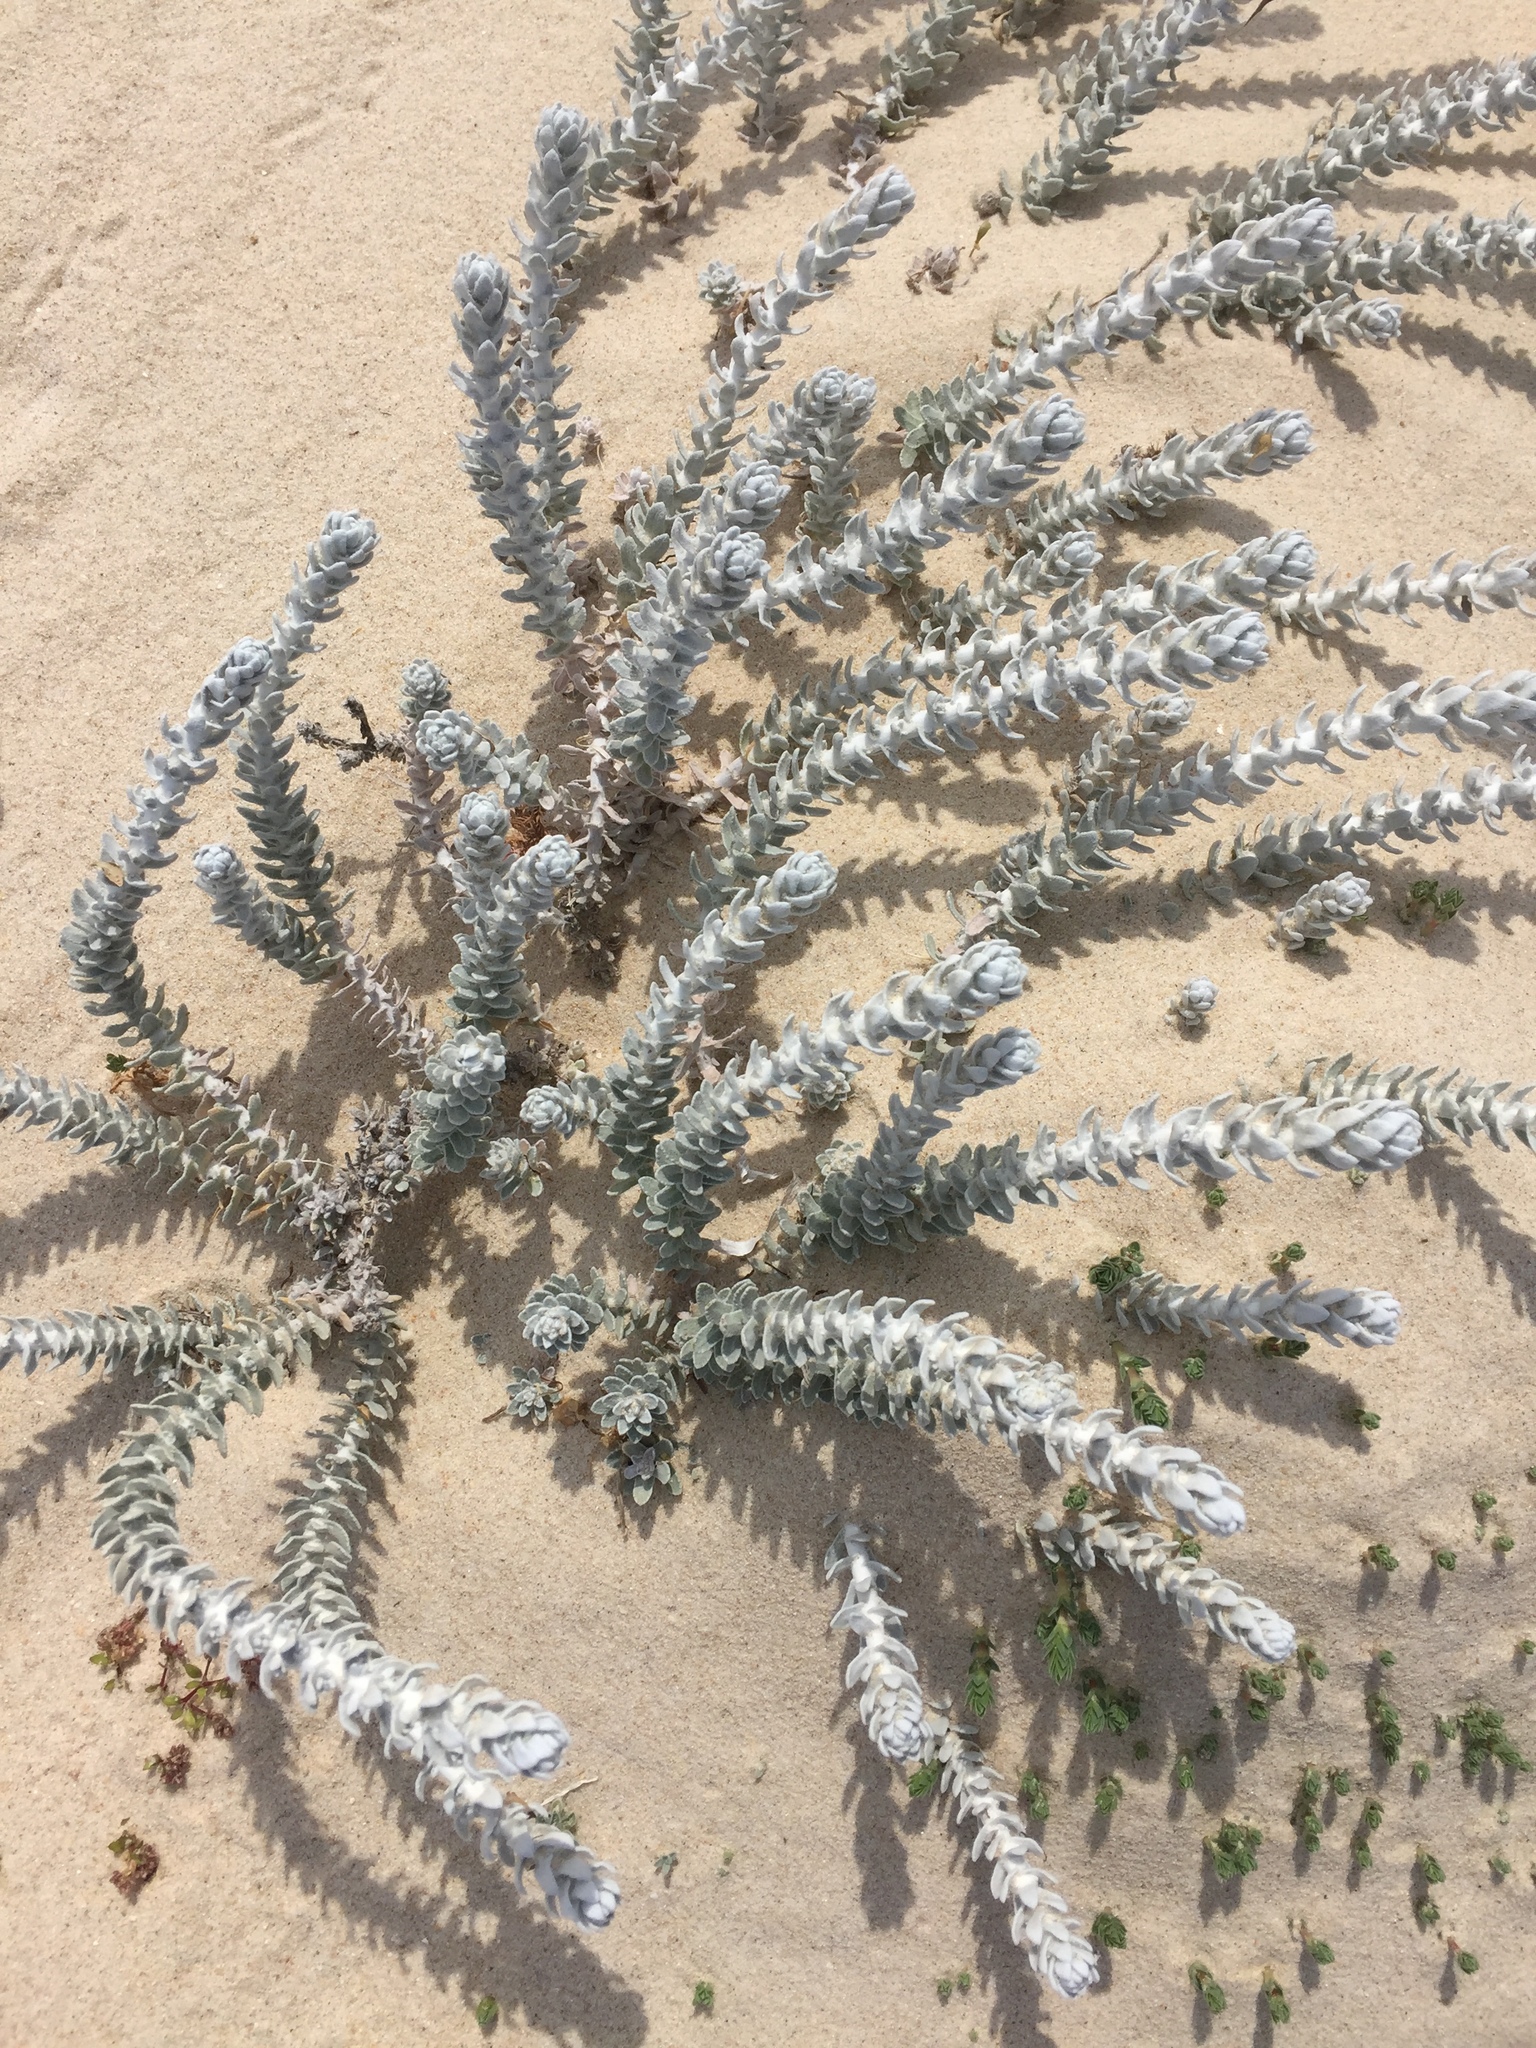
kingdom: Plantae
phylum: Tracheophyta
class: Magnoliopsida
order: Asterales
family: Asteraceae
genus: Achillea
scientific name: Achillea maritima
